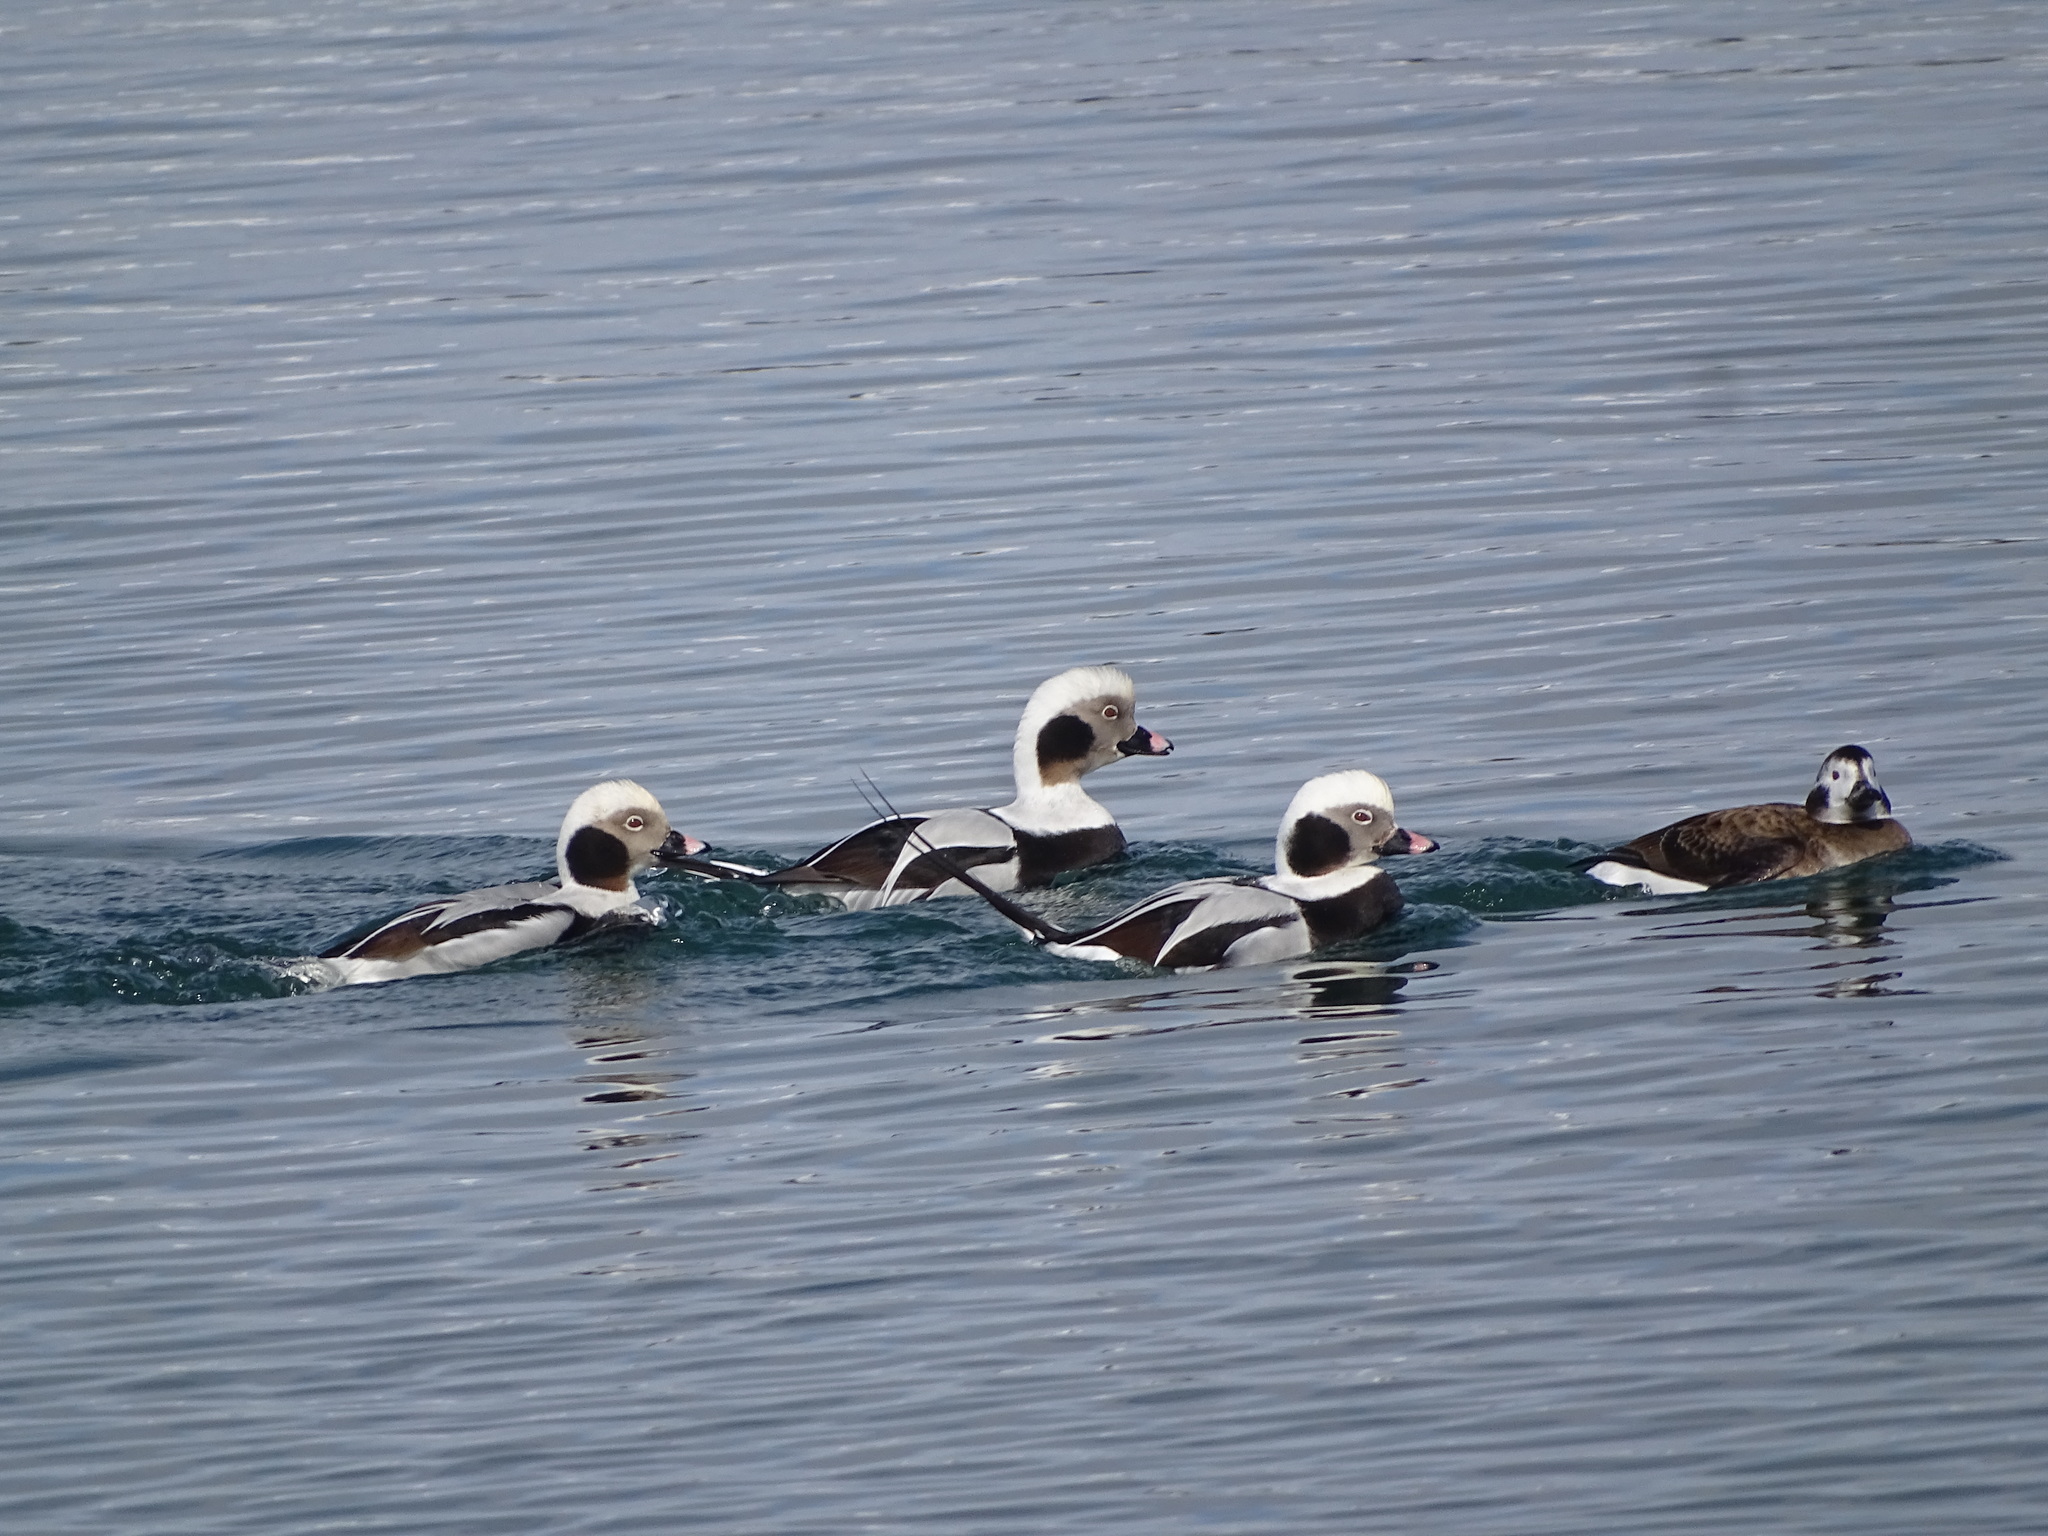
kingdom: Animalia
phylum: Chordata
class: Aves
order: Anseriformes
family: Anatidae
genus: Clangula
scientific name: Clangula hyemalis
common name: Long-tailed duck
